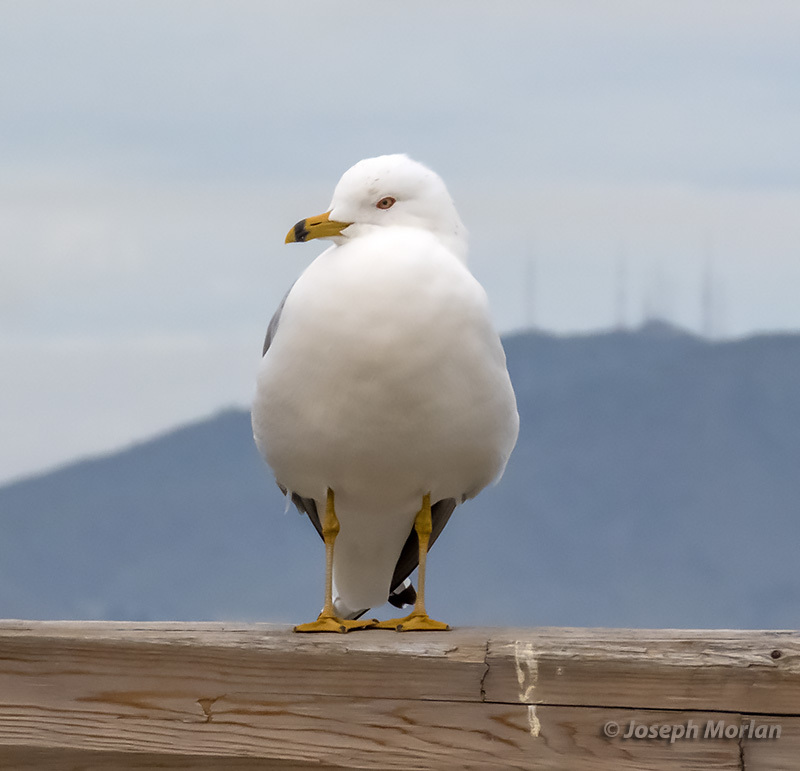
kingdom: Animalia
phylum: Chordata
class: Aves
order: Charadriiformes
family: Laridae
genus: Larus
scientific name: Larus delawarensis
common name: Ring-billed gull
